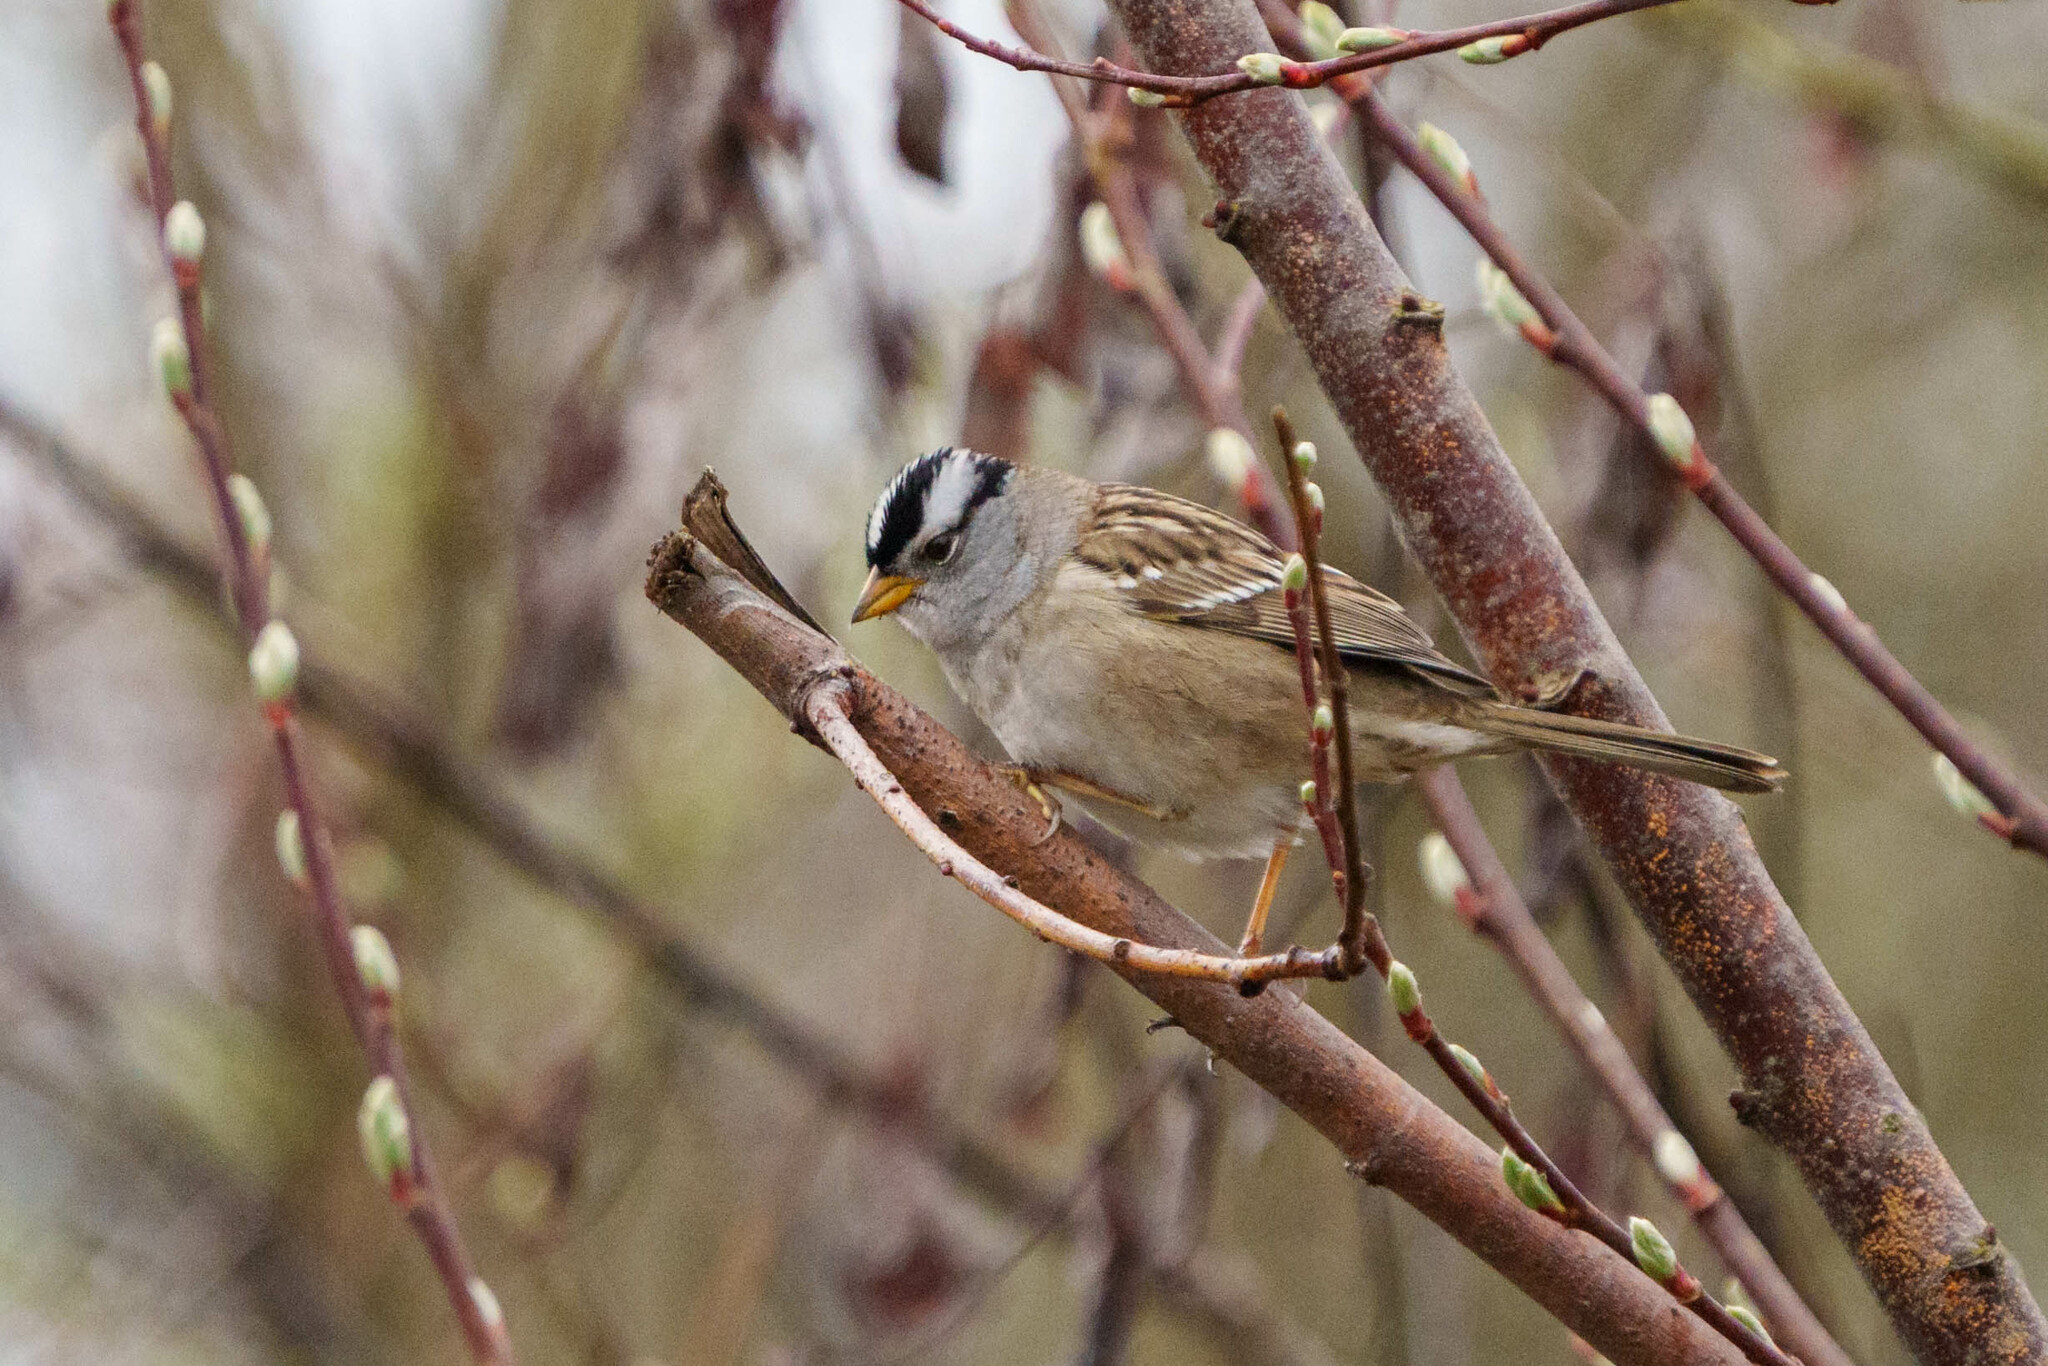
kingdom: Animalia
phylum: Chordata
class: Aves
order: Passeriformes
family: Passerellidae
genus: Zonotrichia
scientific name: Zonotrichia leucophrys
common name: White-crowned sparrow
